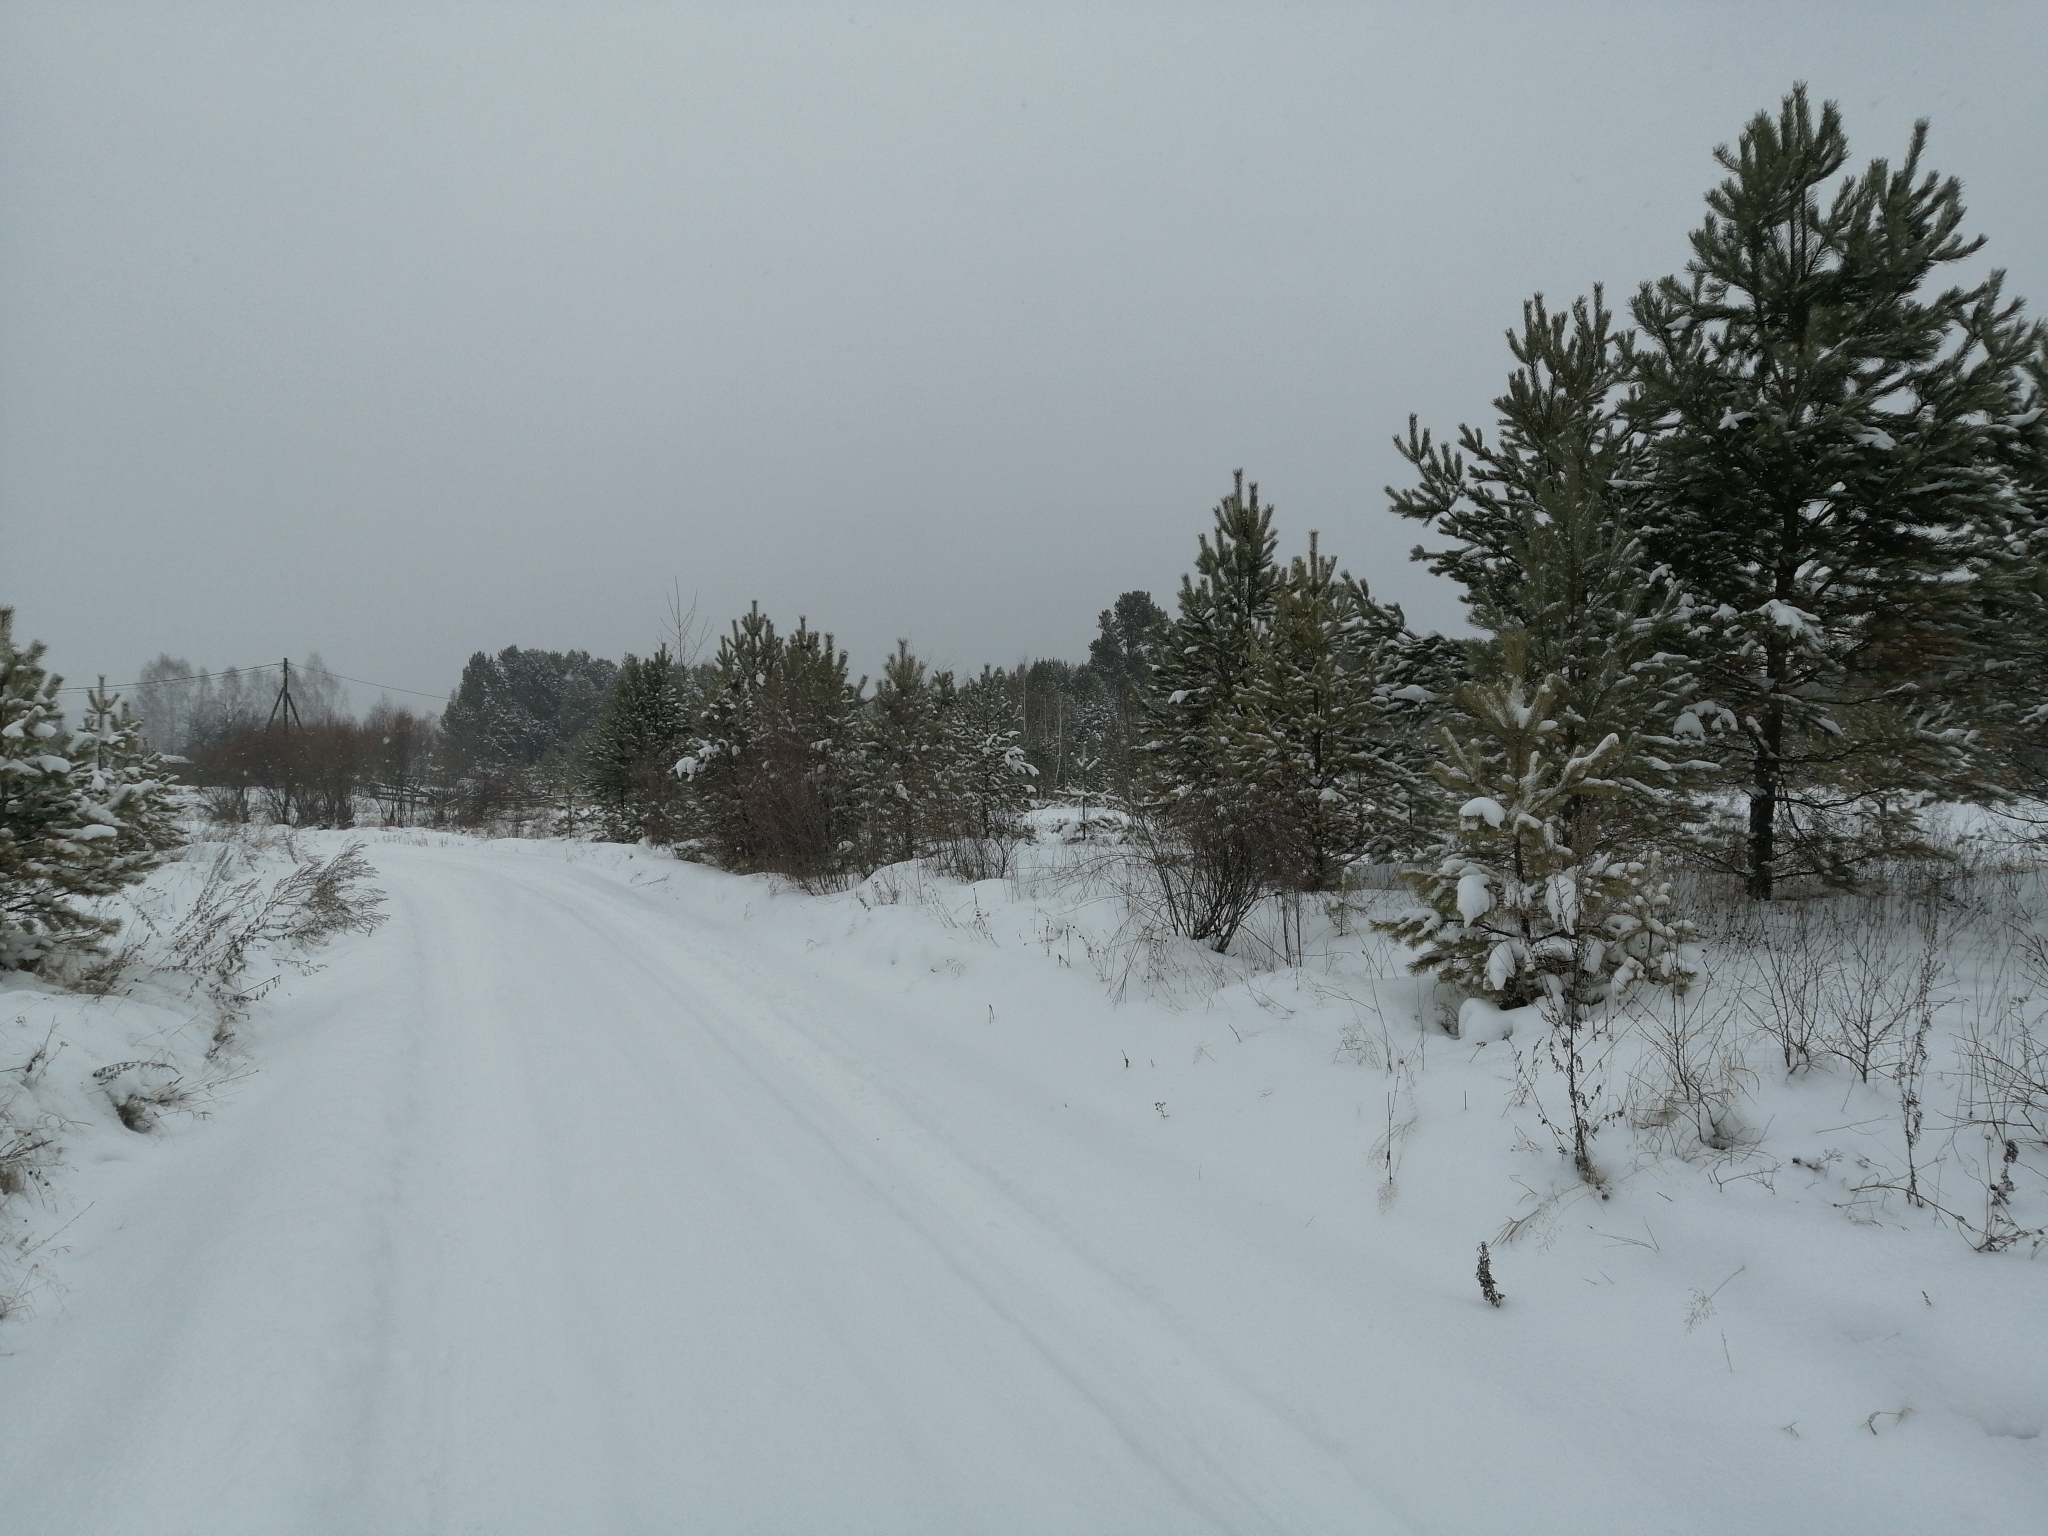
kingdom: Plantae
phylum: Tracheophyta
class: Pinopsida
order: Pinales
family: Pinaceae
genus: Pinus
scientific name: Pinus sylvestris
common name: Scots pine
